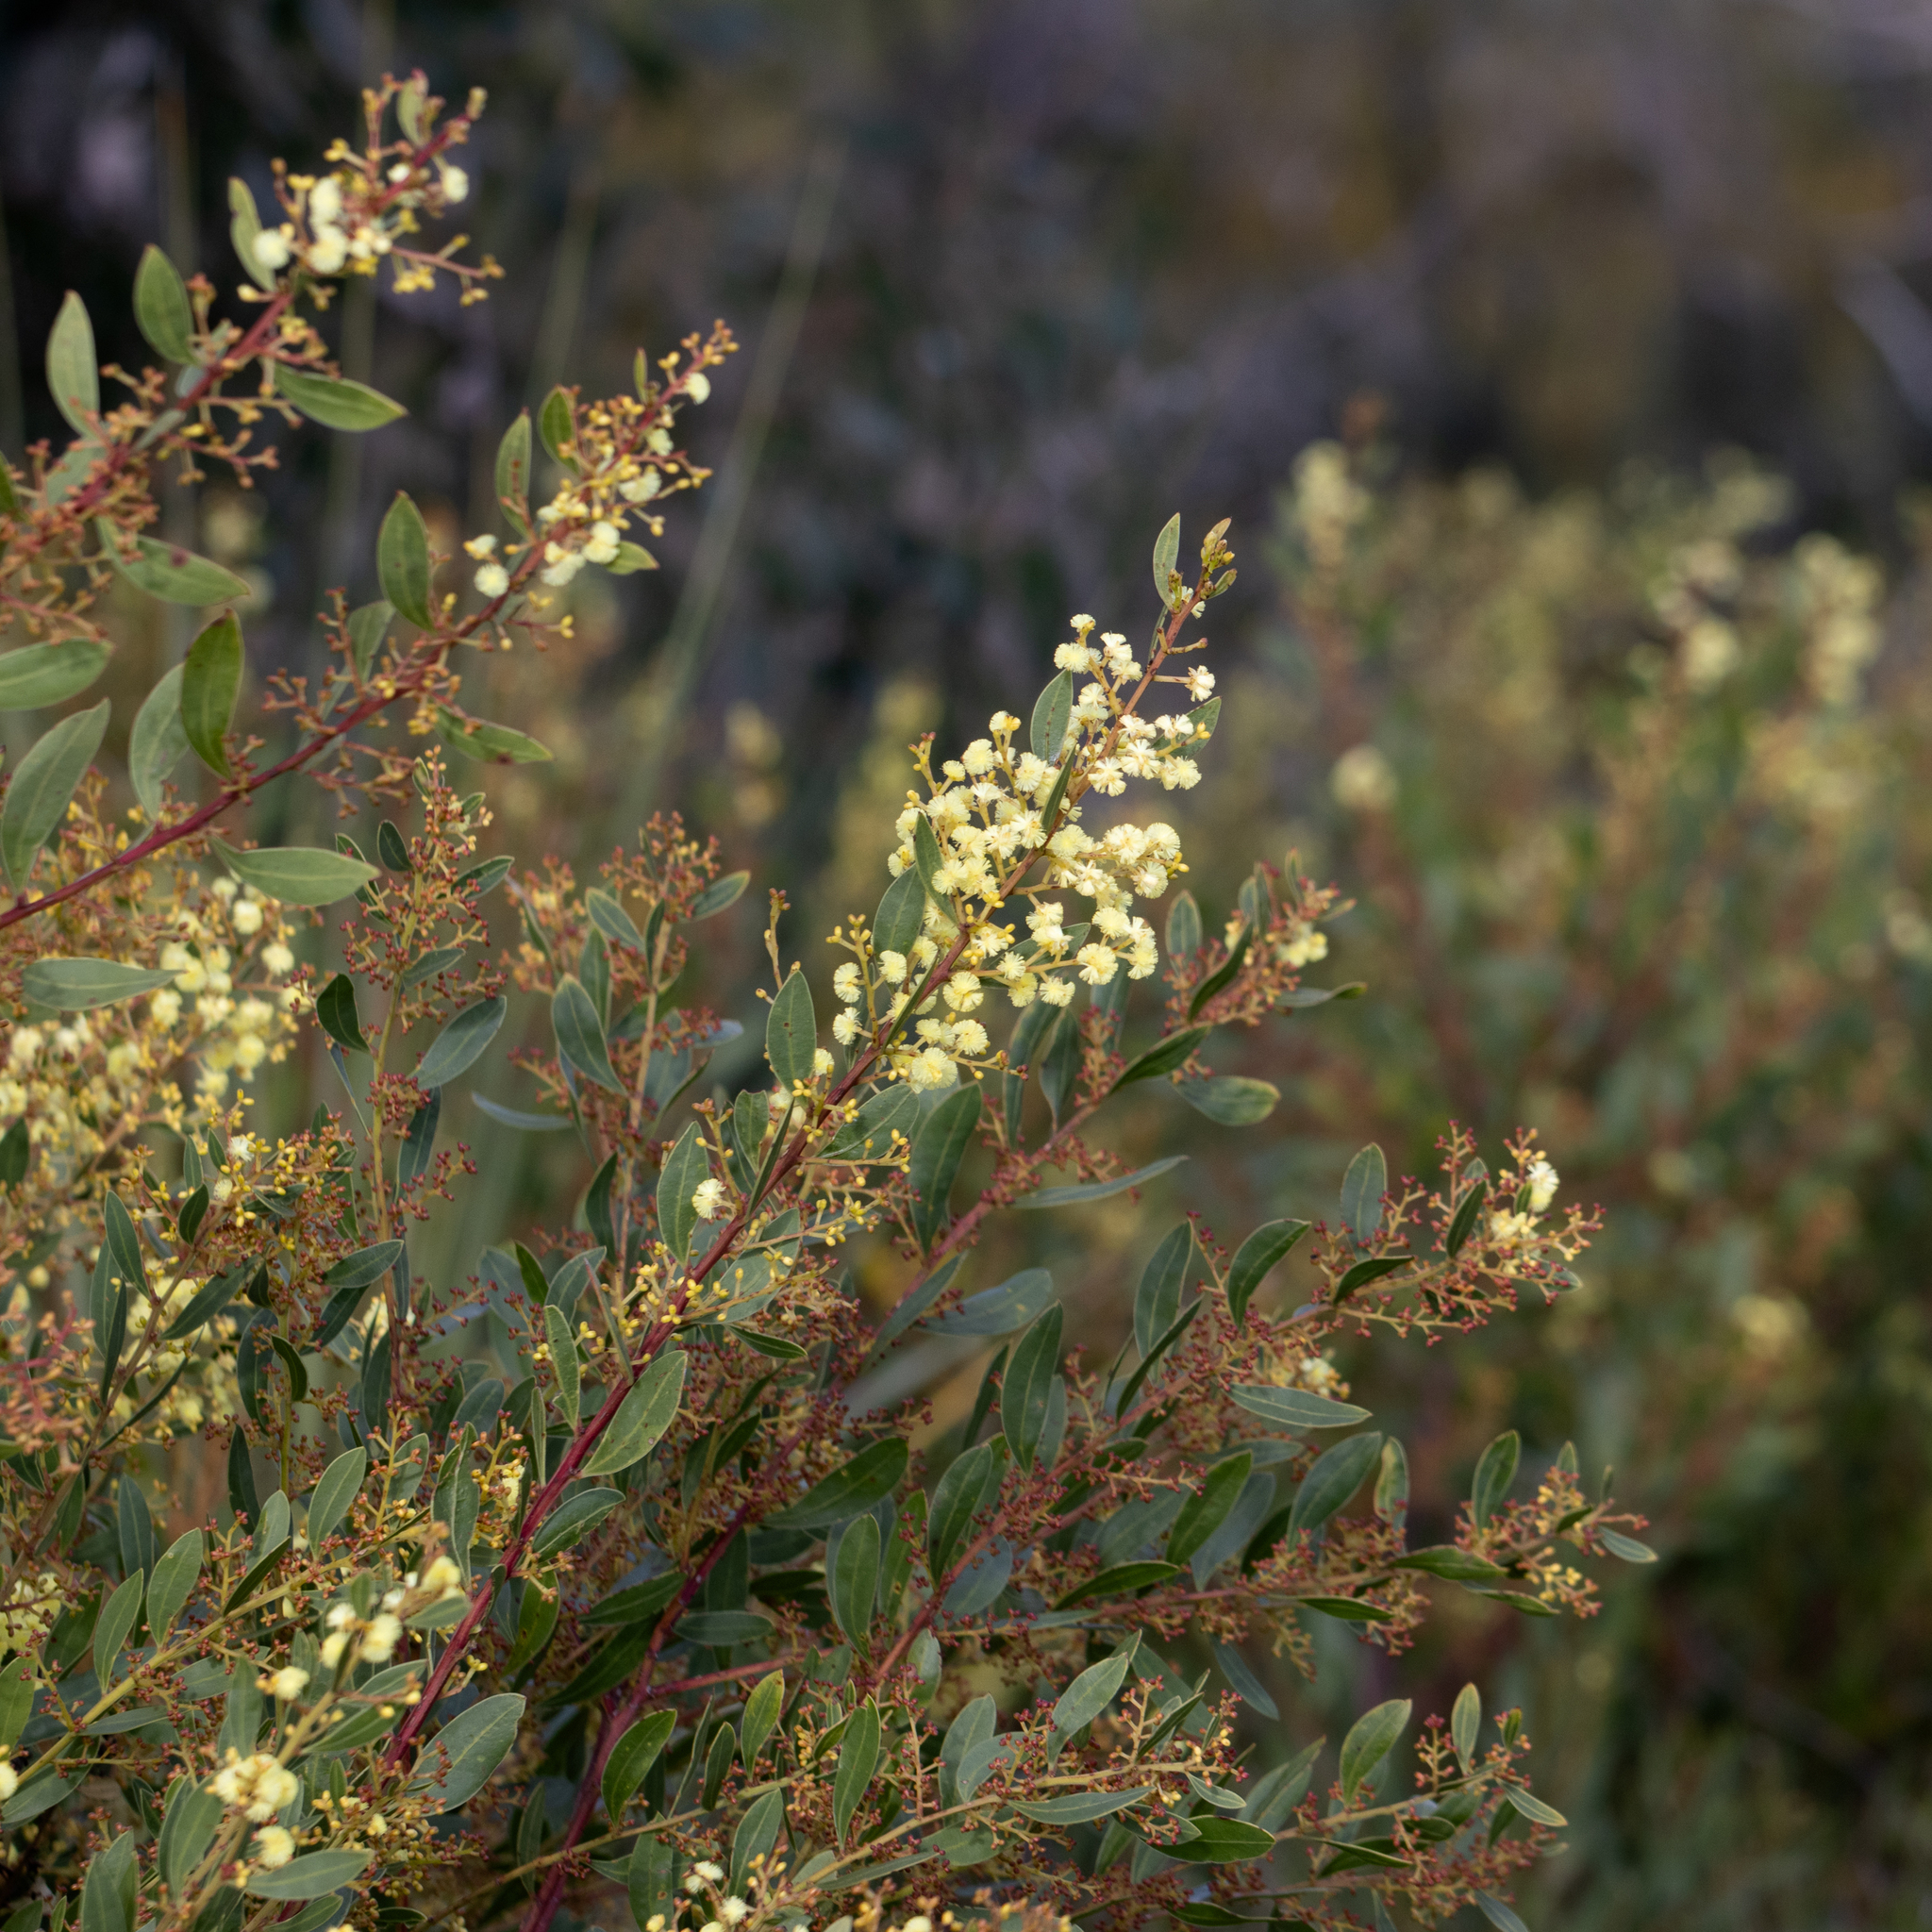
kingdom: Plantae
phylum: Tracheophyta
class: Magnoliopsida
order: Fabales
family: Fabaceae
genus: Acacia
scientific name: Acacia myrtifolia
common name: Myrtle wattle
